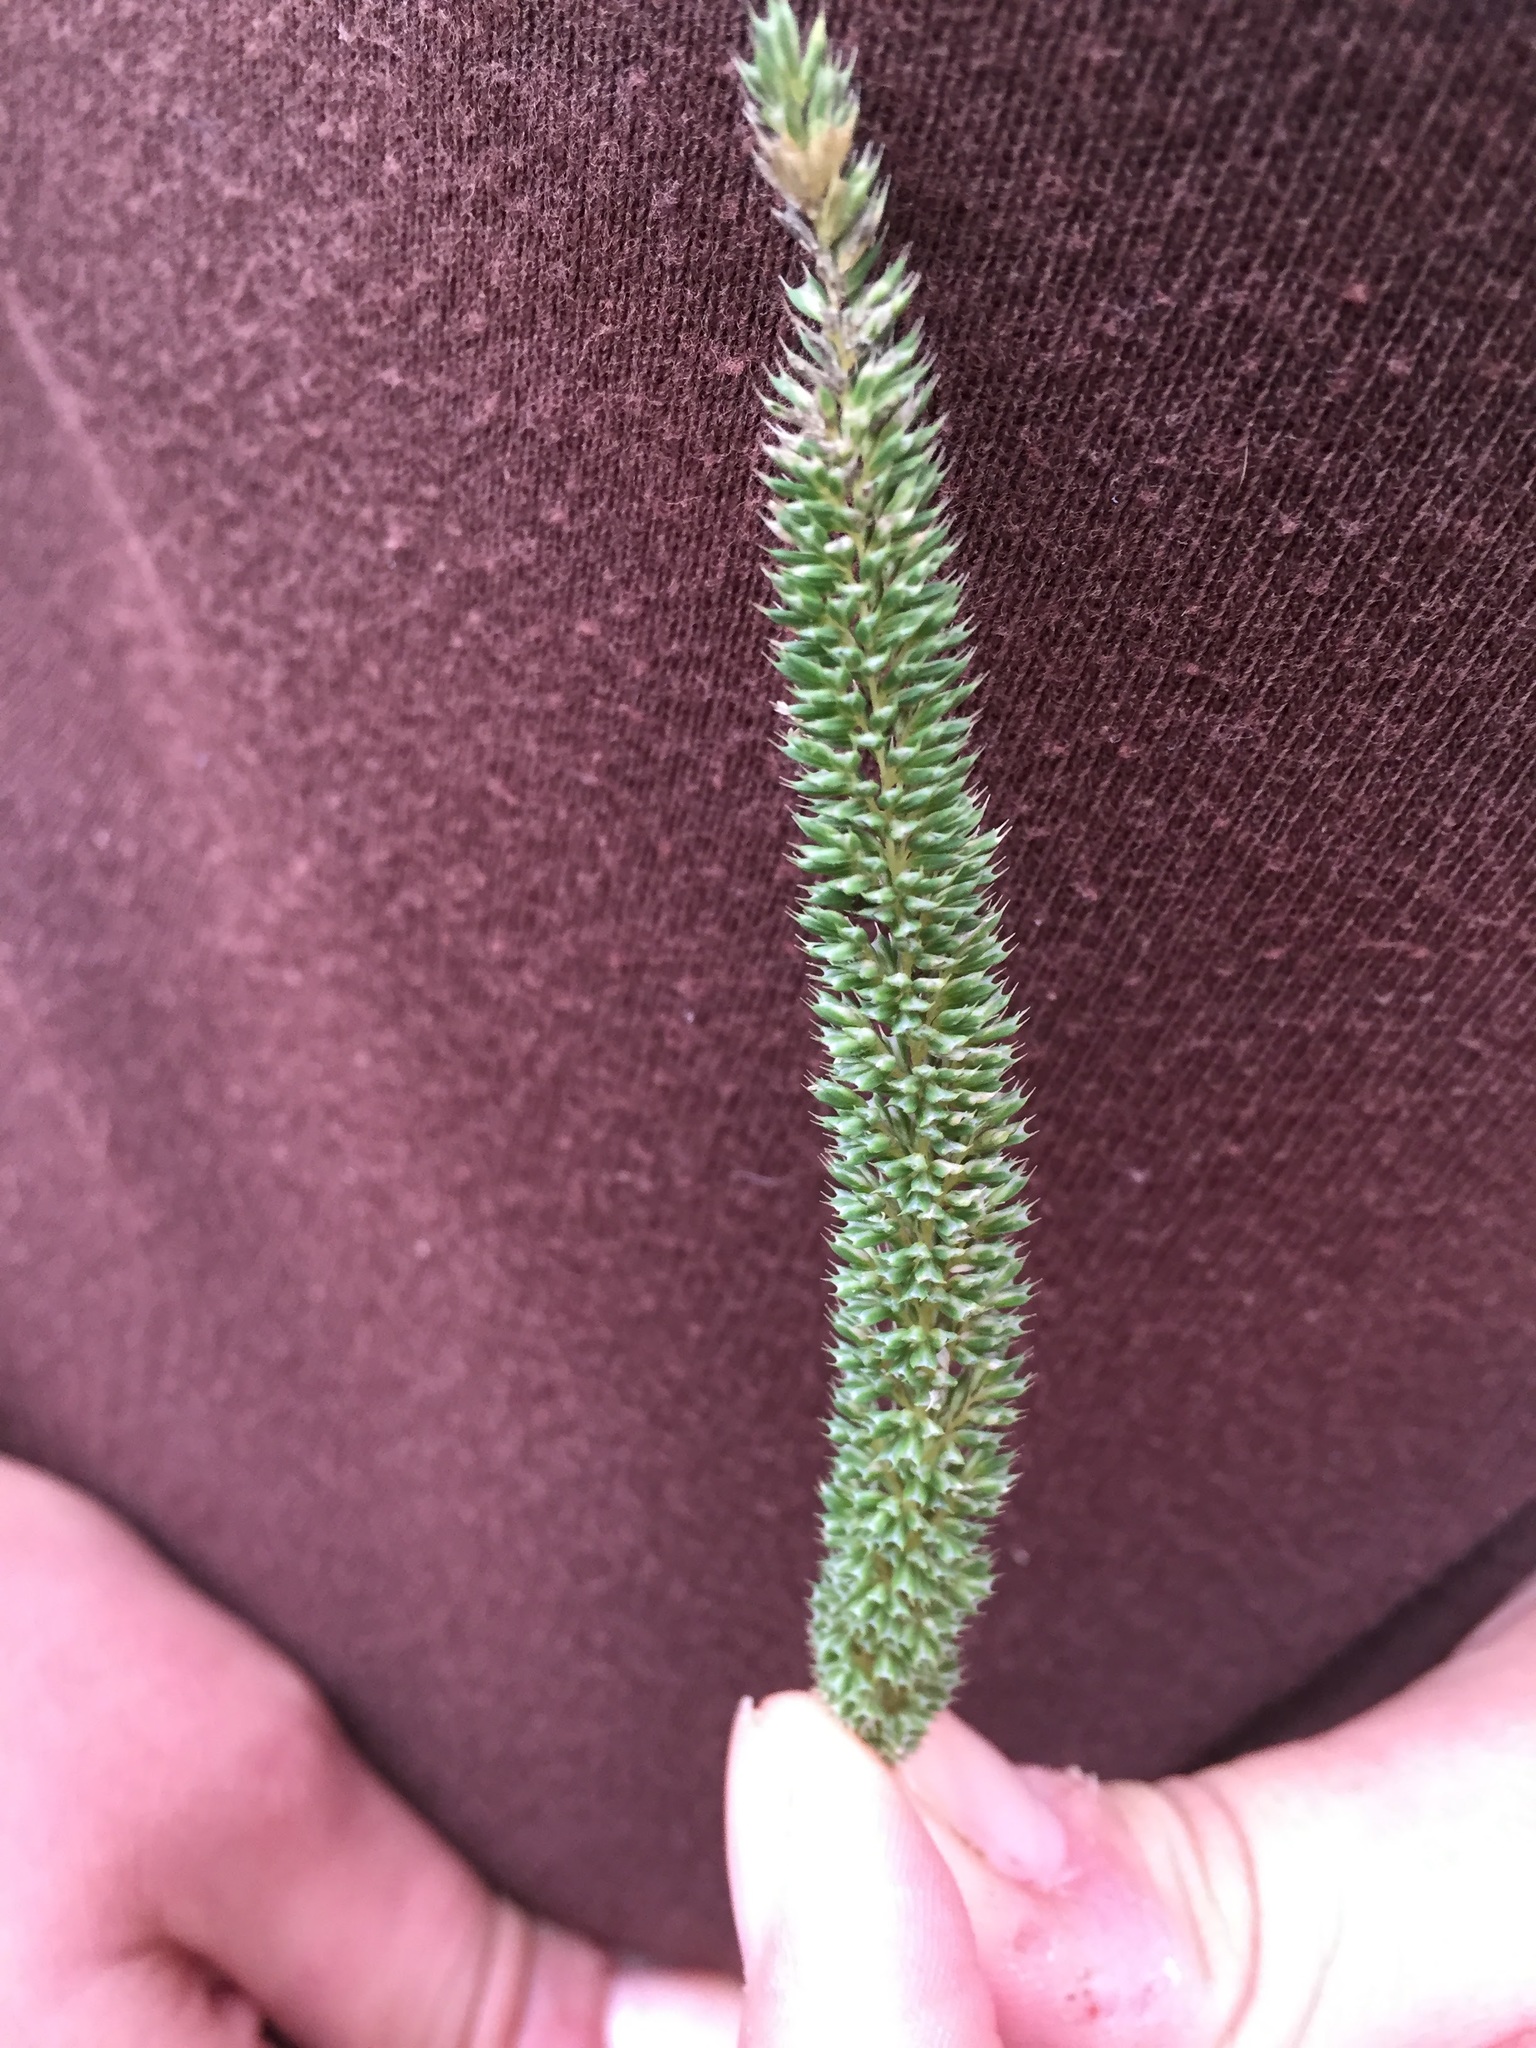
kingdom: Plantae
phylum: Tracheophyta
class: Liliopsida
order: Poales
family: Poaceae
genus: Phleum
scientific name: Phleum phleoides
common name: Purple-stem cat's-tail
